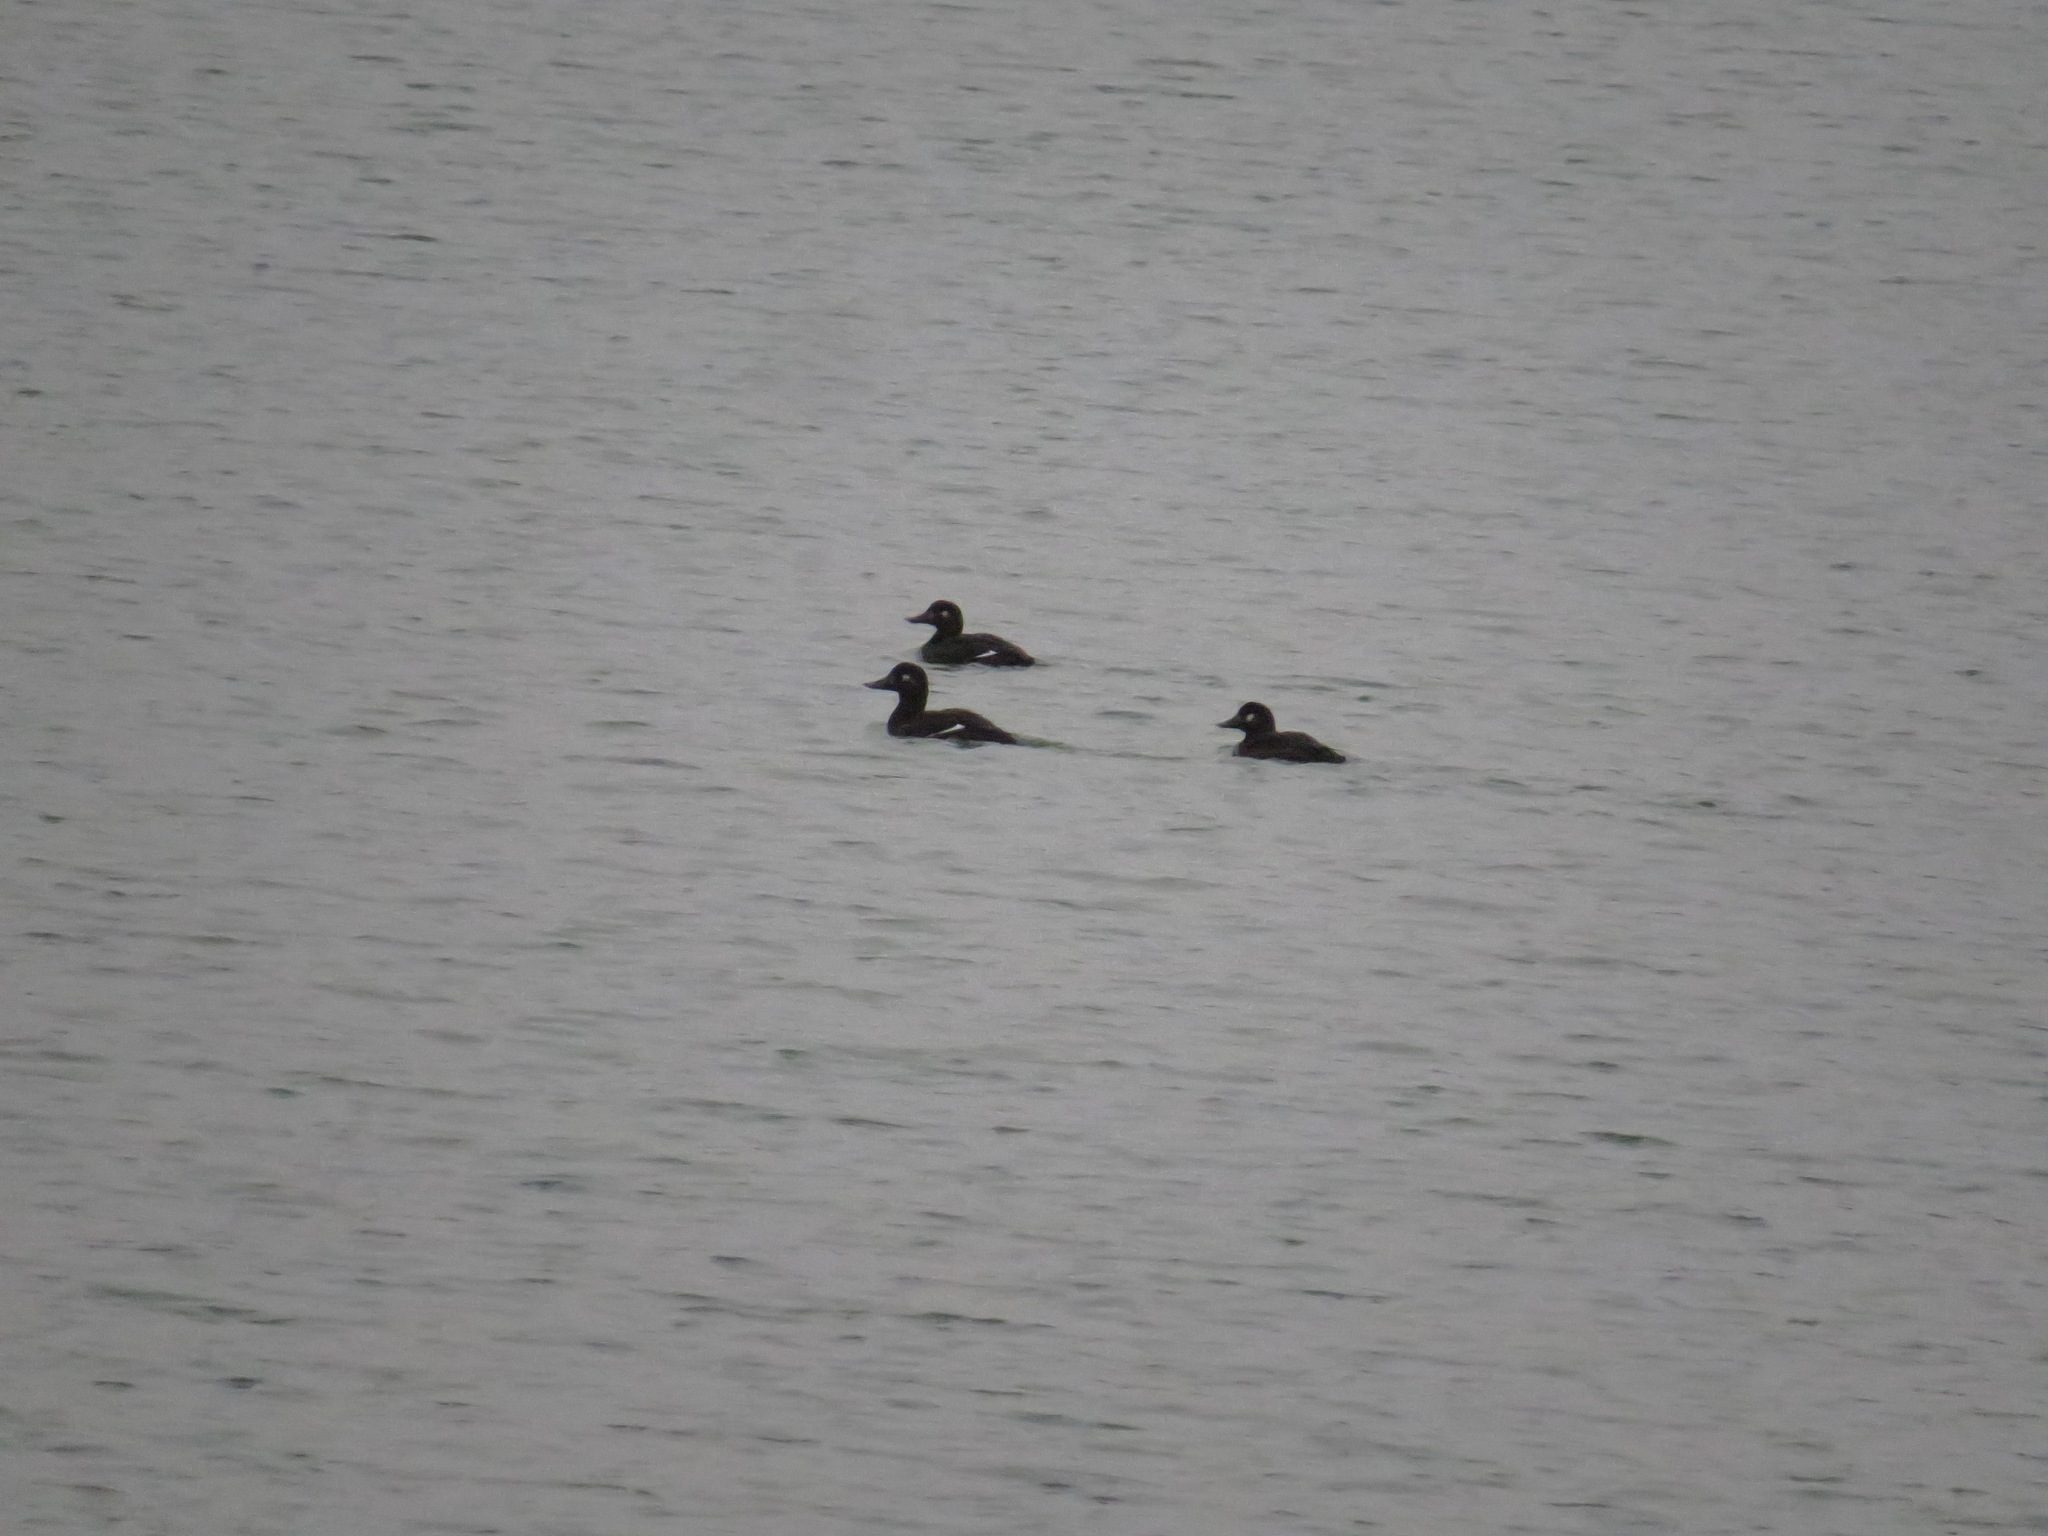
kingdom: Animalia
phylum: Chordata
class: Aves
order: Anseriformes
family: Anatidae
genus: Melanitta
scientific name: Melanitta fusca
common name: Velvet scoter
